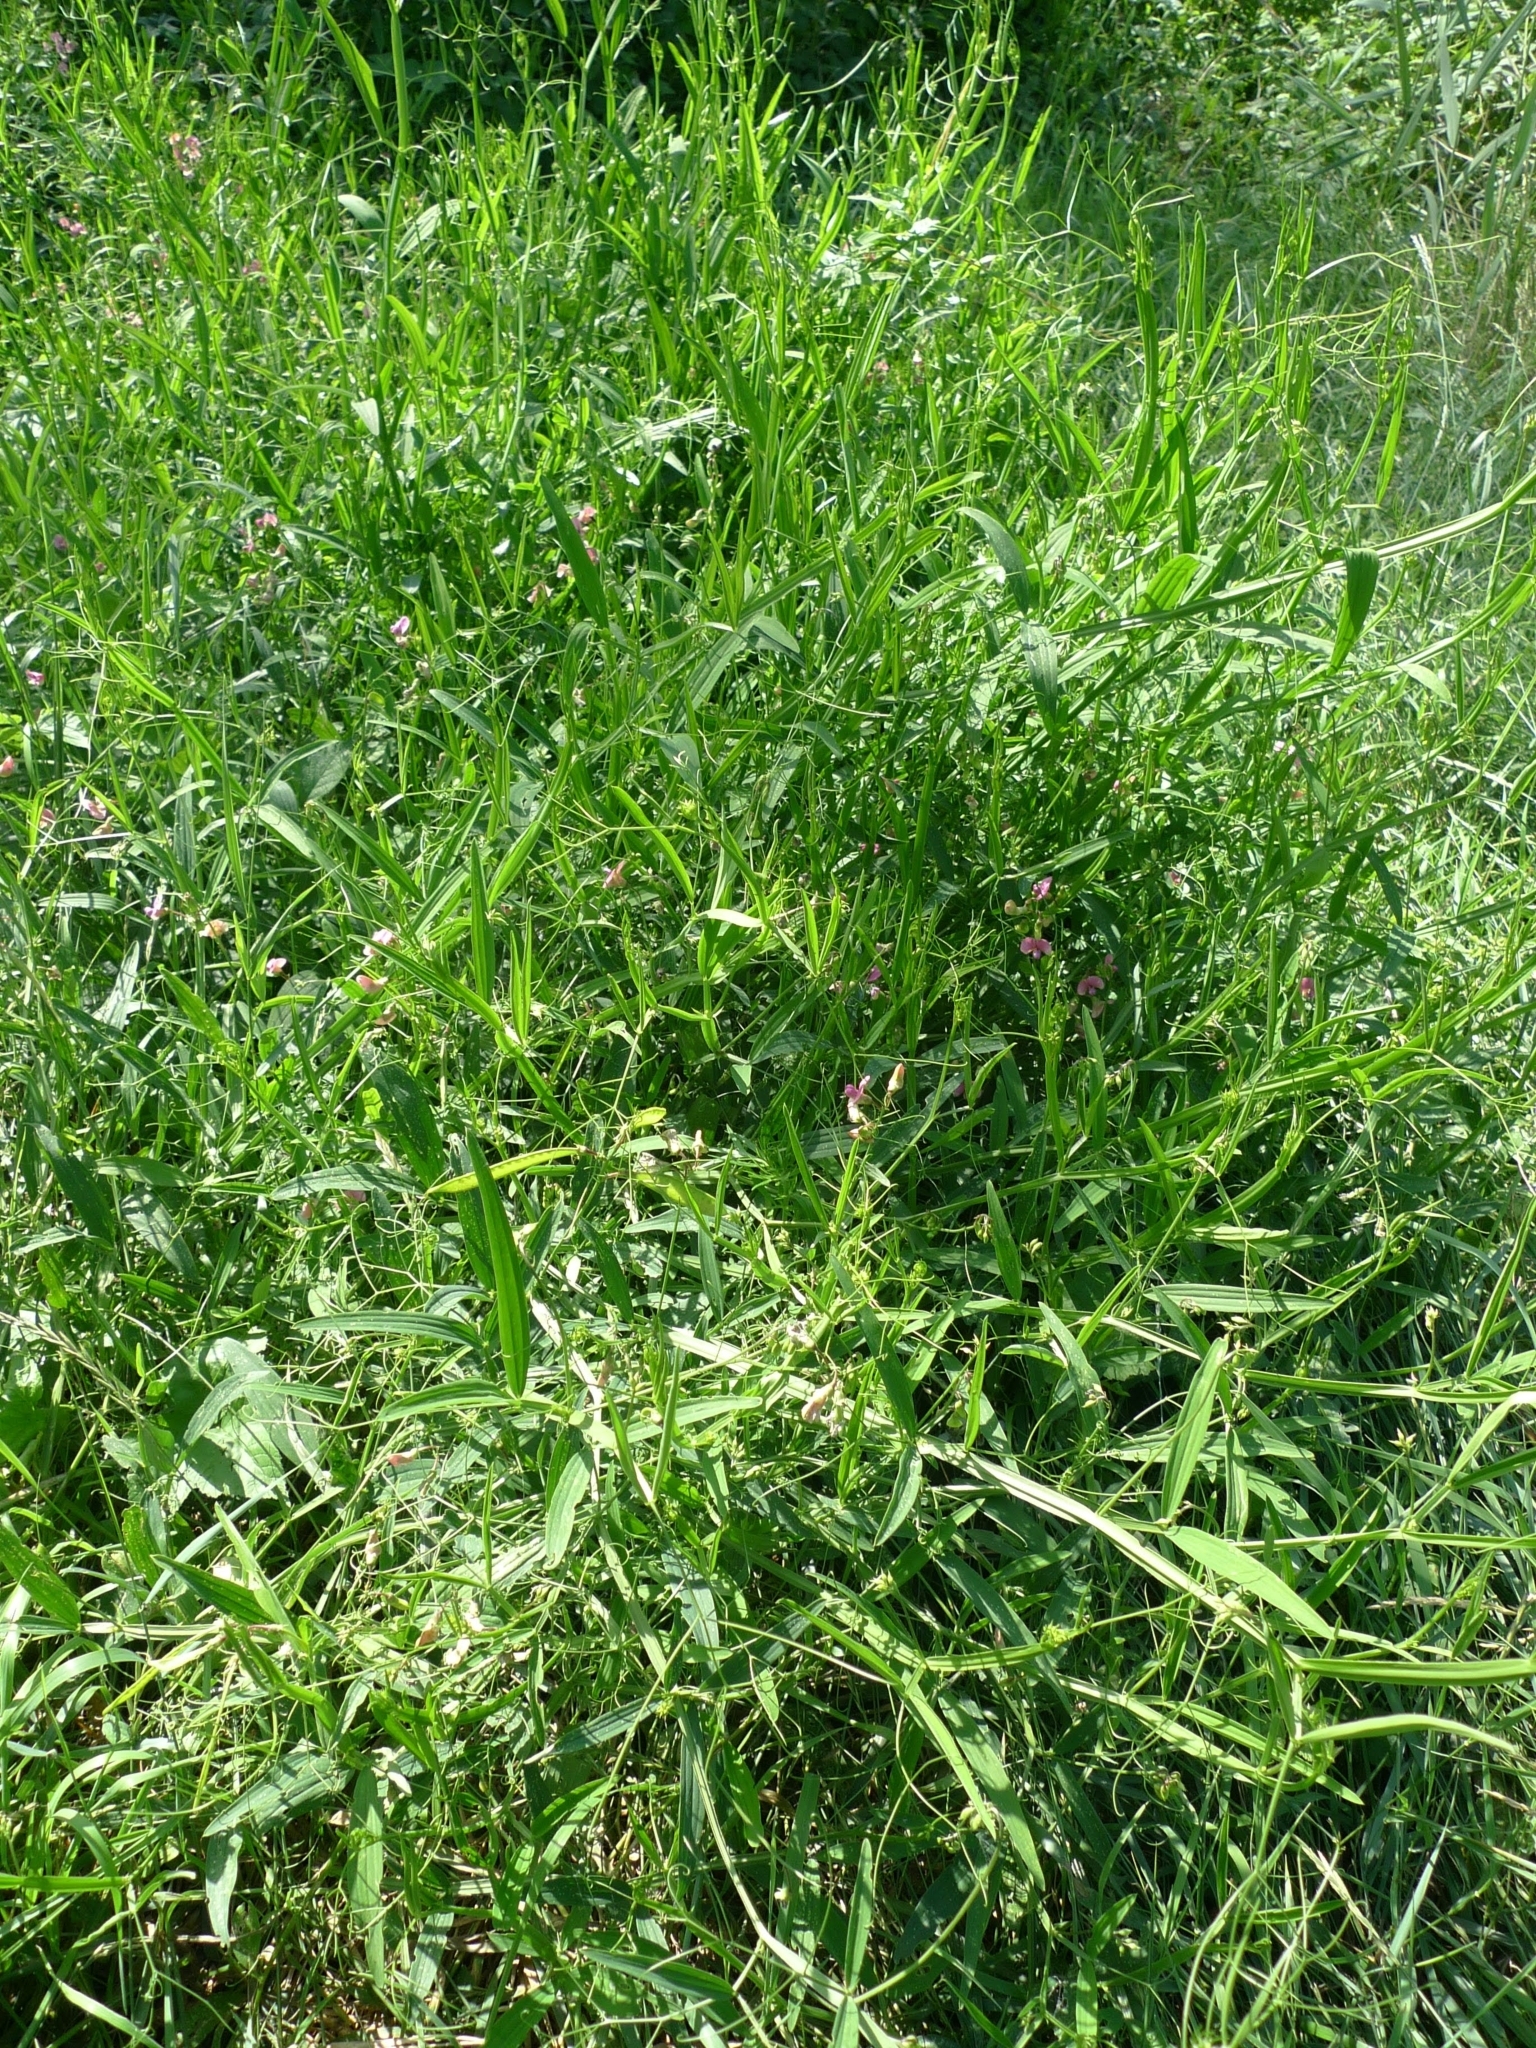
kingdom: Plantae
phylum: Tracheophyta
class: Magnoliopsida
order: Fabales
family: Fabaceae
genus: Lathyrus
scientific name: Lathyrus sylvestris
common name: Flat pea
